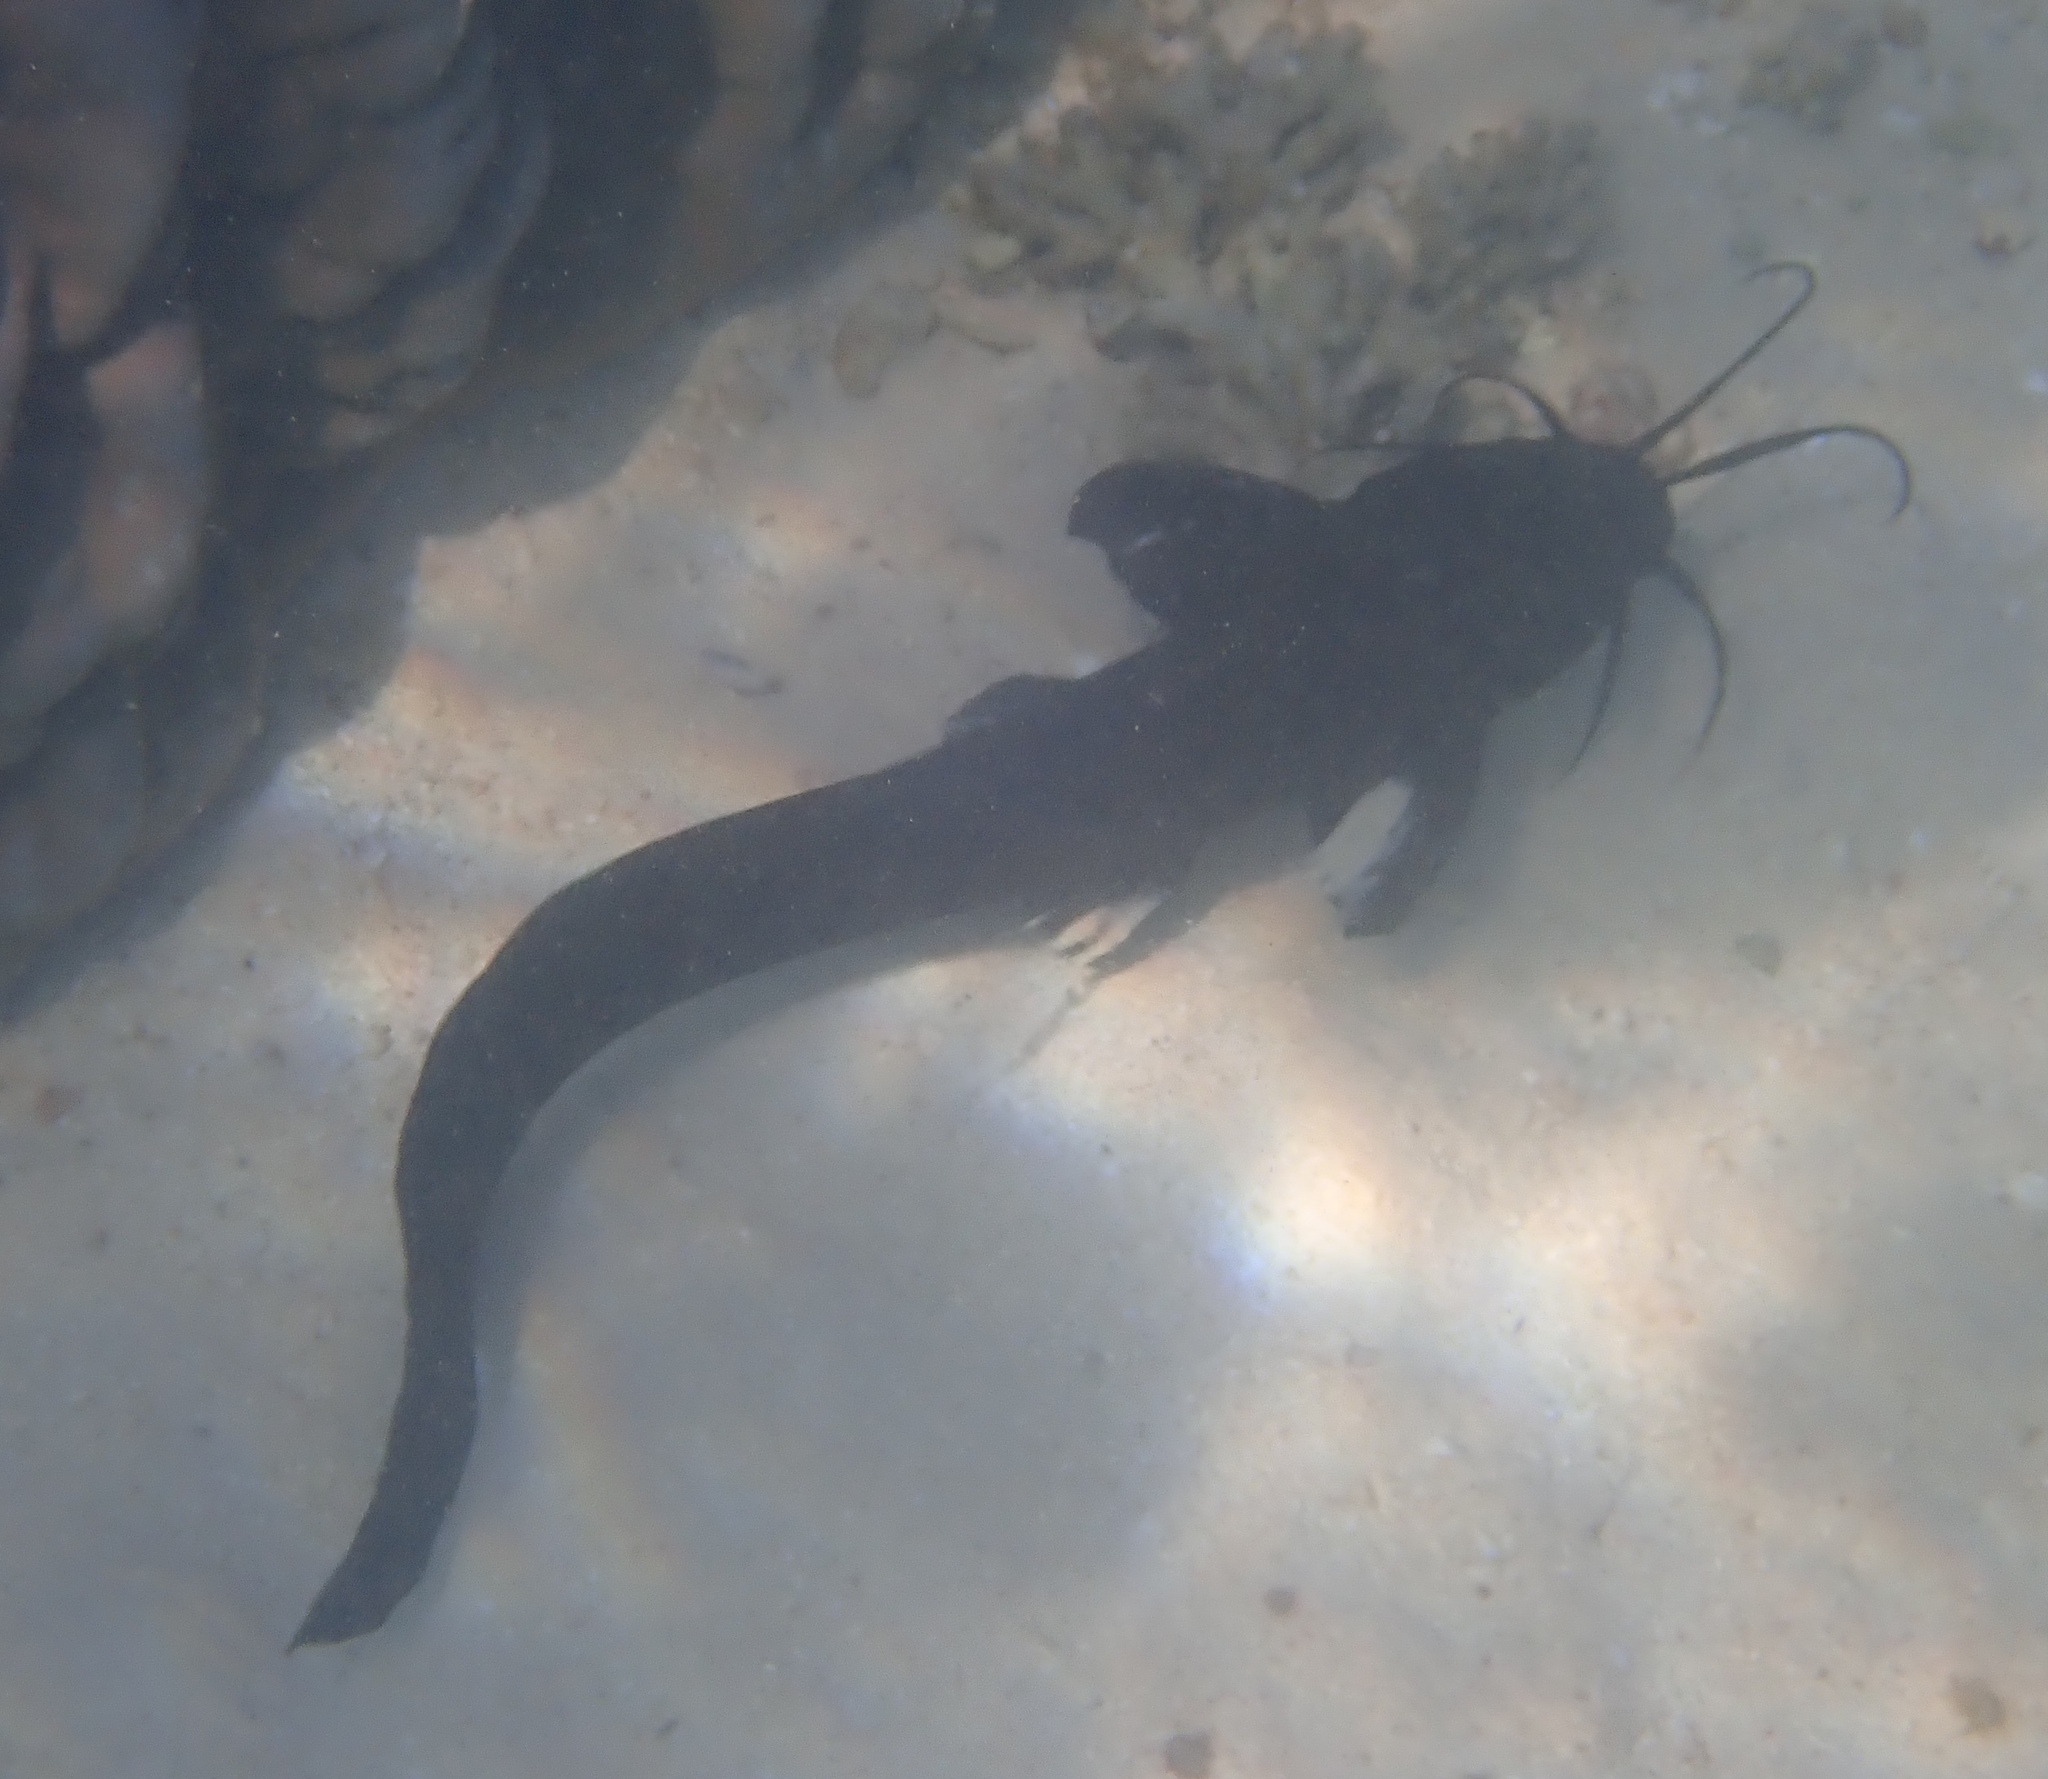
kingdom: Animalia
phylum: Chordata
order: Siluriformes
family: Plotosidae
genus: Paraplotosus
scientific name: Paraplotosus butleri
